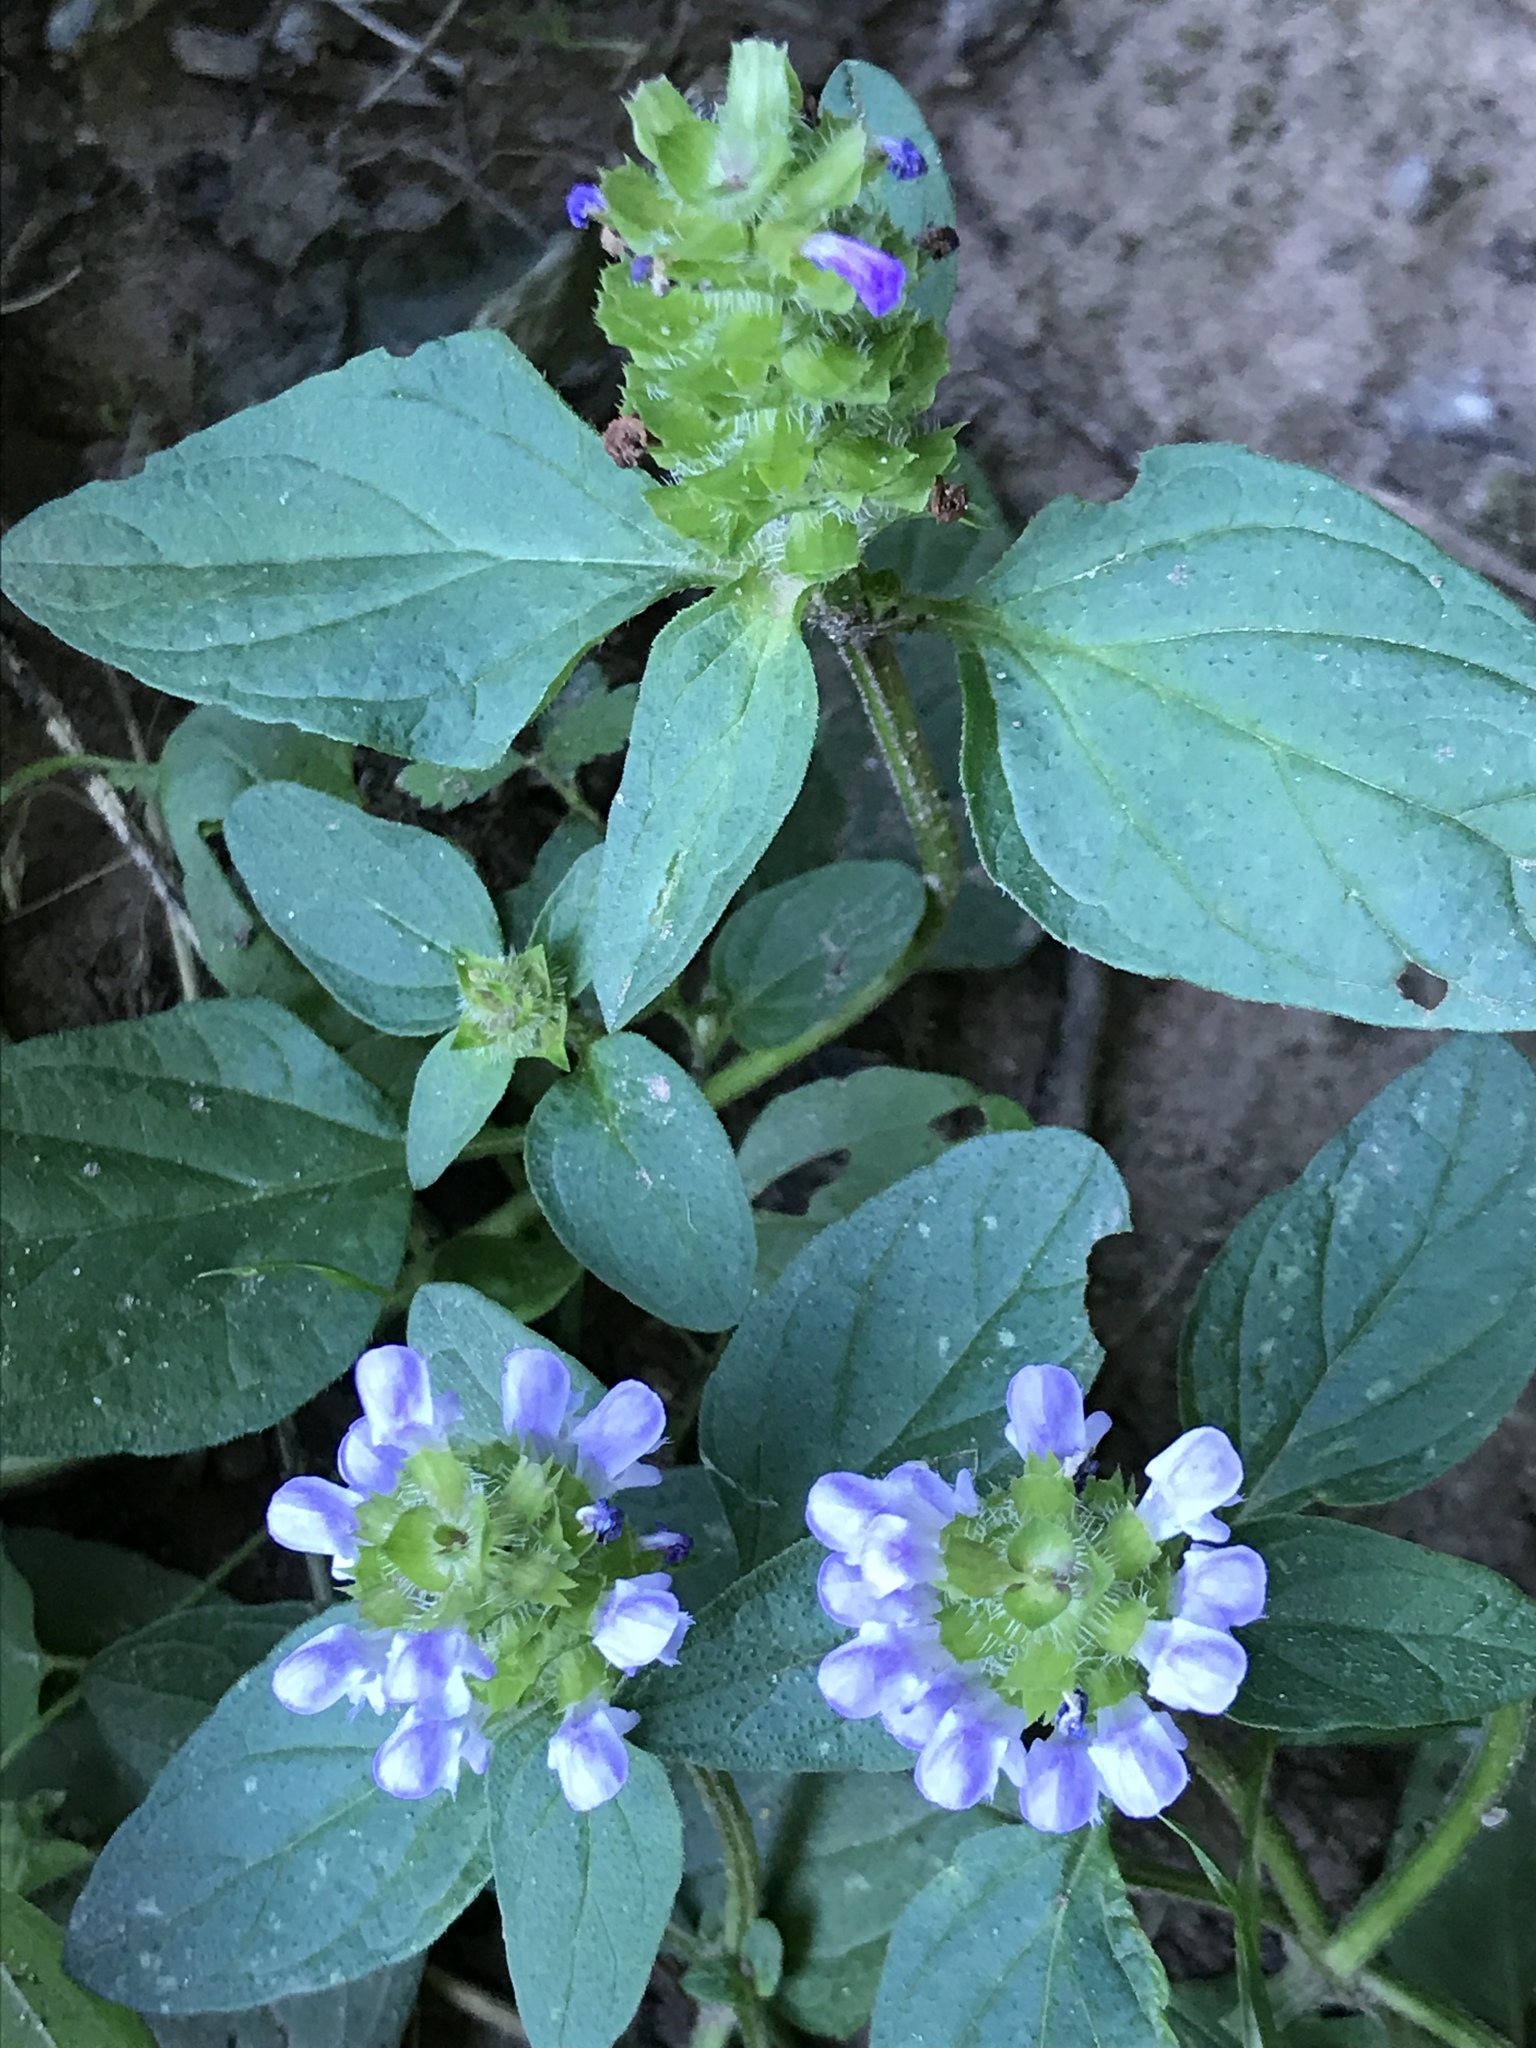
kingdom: Plantae
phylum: Tracheophyta
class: Magnoliopsida
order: Lamiales
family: Lamiaceae
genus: Prunella
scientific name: Prunella vulgaris
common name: Heal-all
